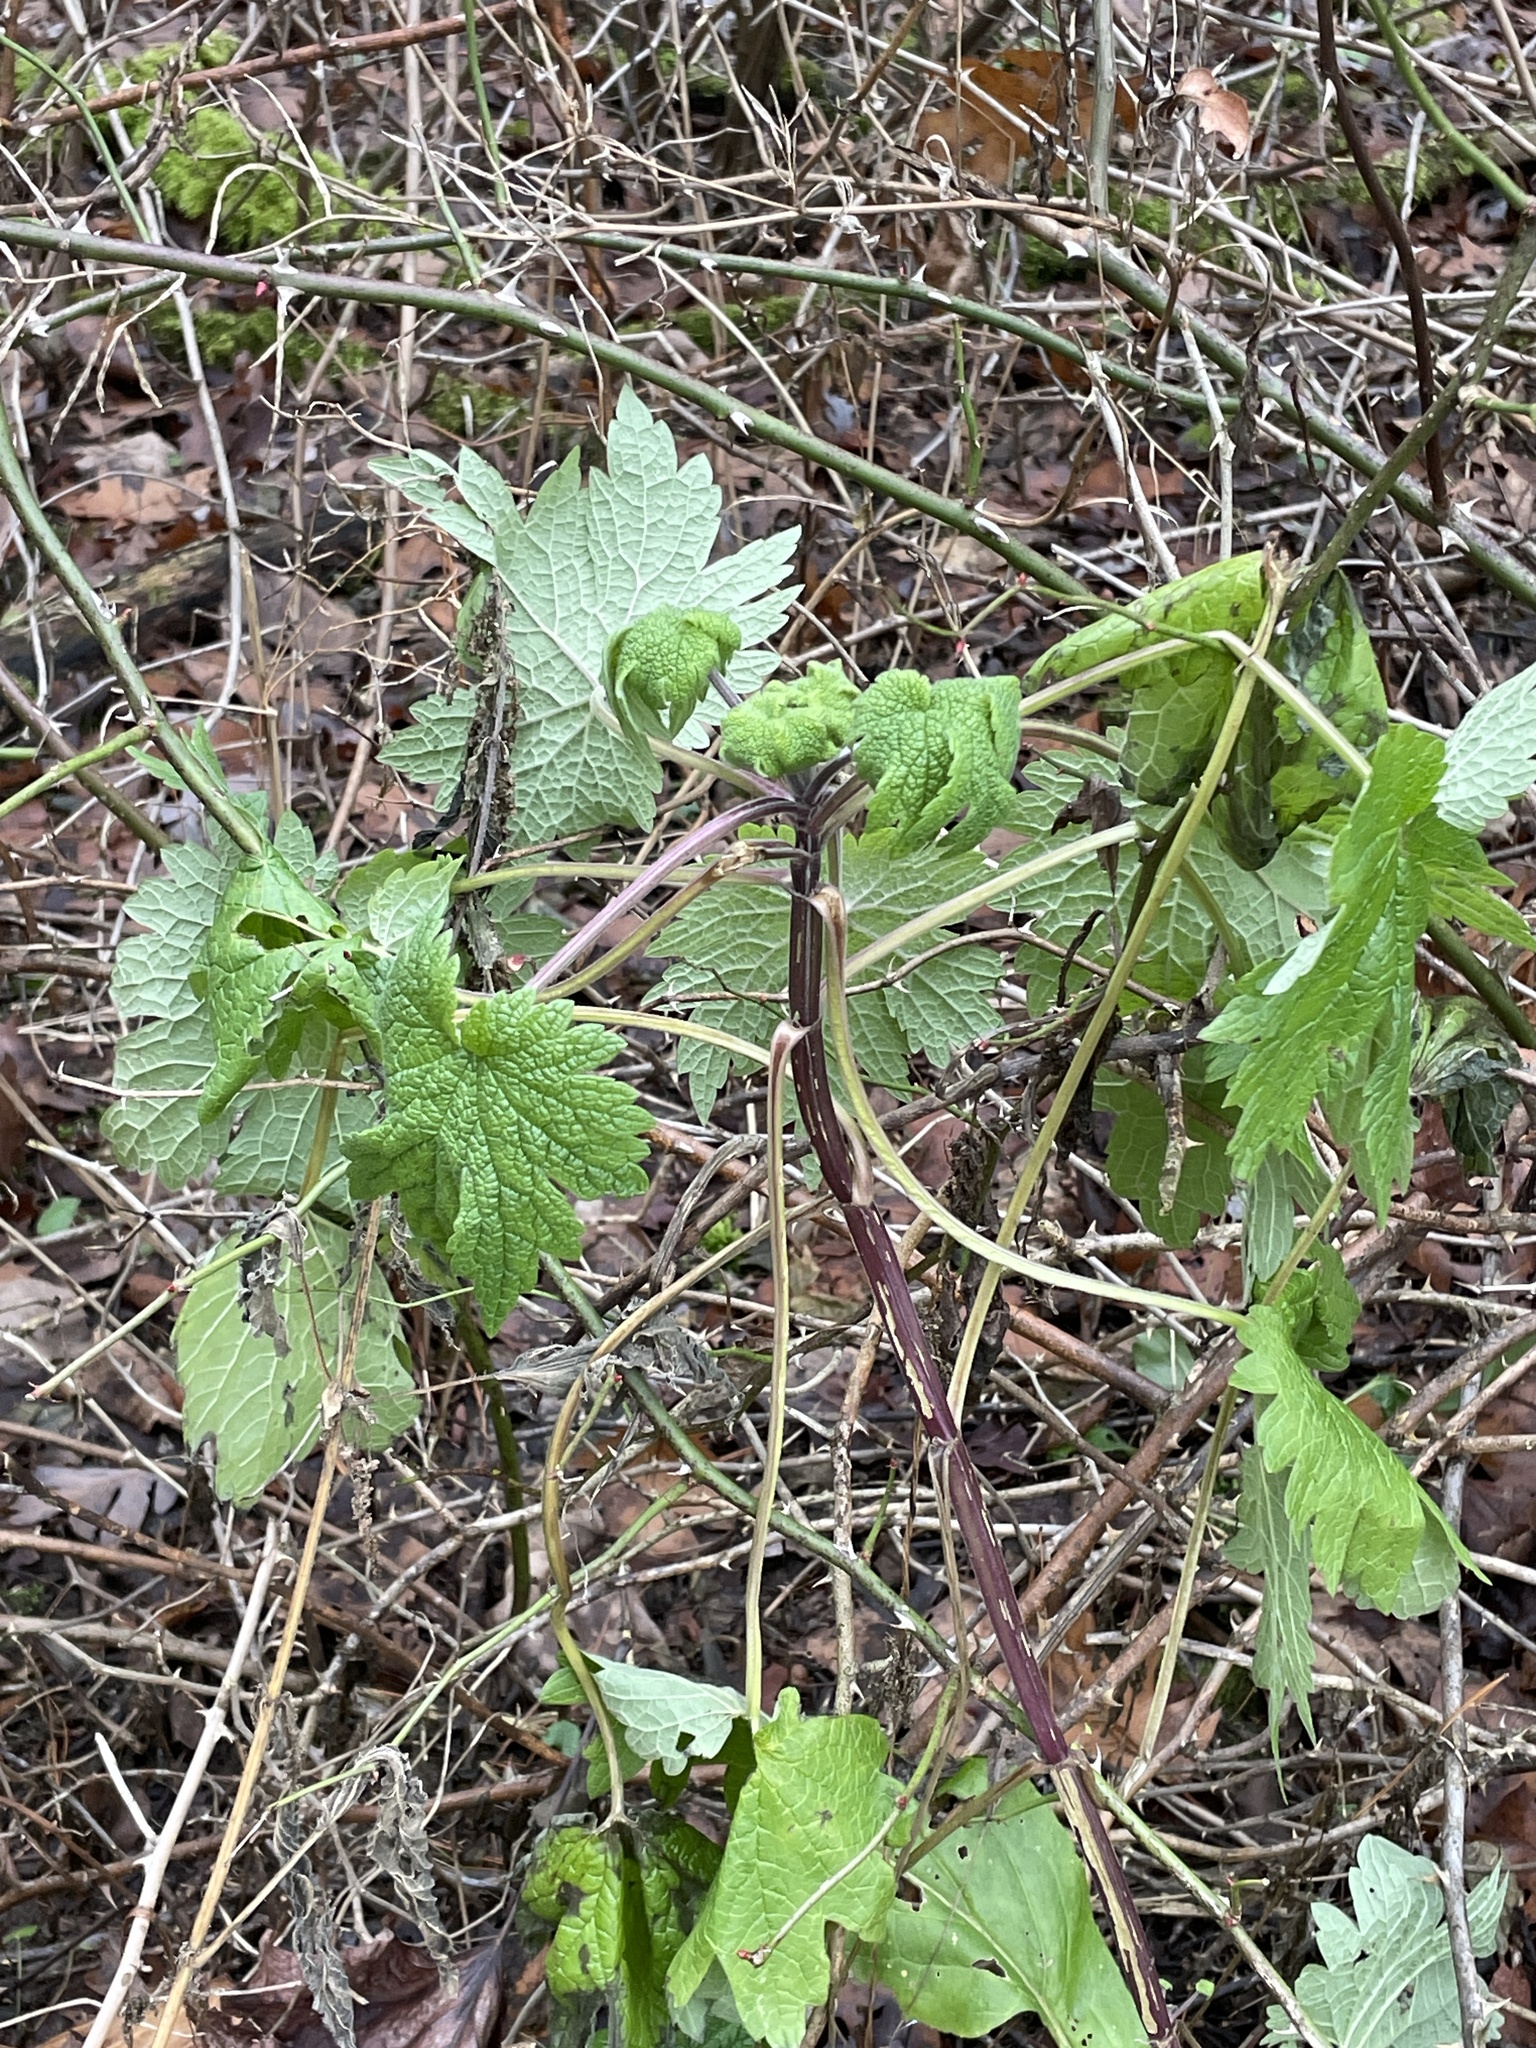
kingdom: Plantae
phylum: Tracheophyta
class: Magnoliopsida
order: Lamiales
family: Lamiaceae
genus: Leonurus
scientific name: Leonurus cardiaca
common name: Motherwort
